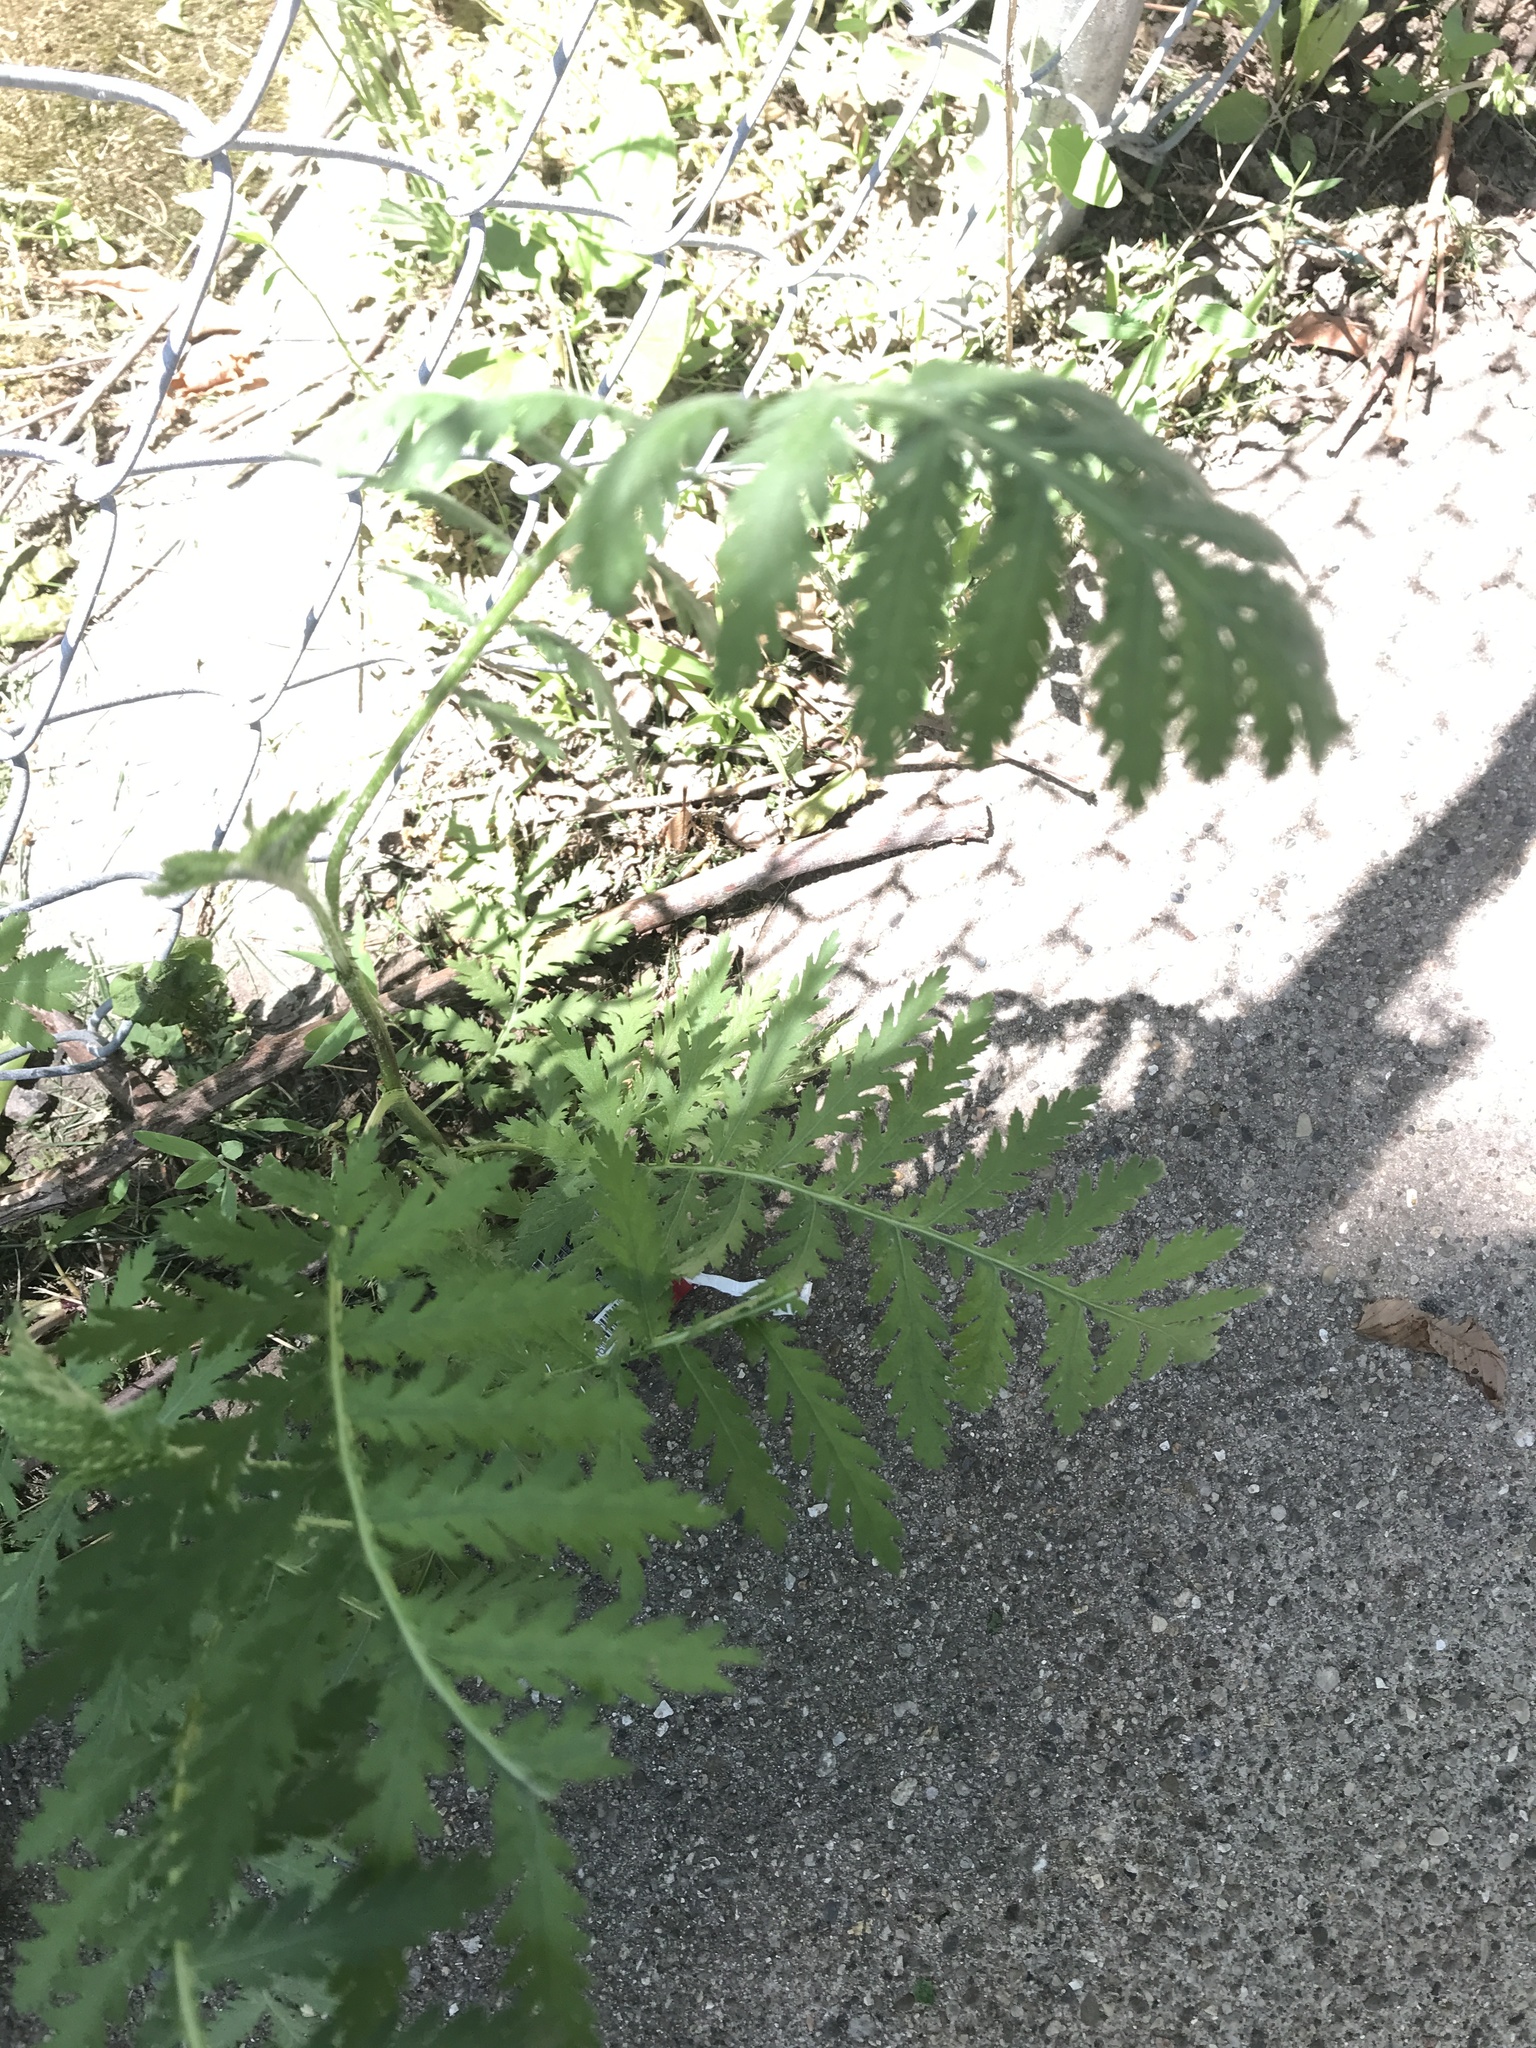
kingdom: Plantae
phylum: Tracheophyta
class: Magnoliopsida
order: Asterales
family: Asteraceae
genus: Tanacetum
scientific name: Tanacetum vulgare
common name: Common tansy
